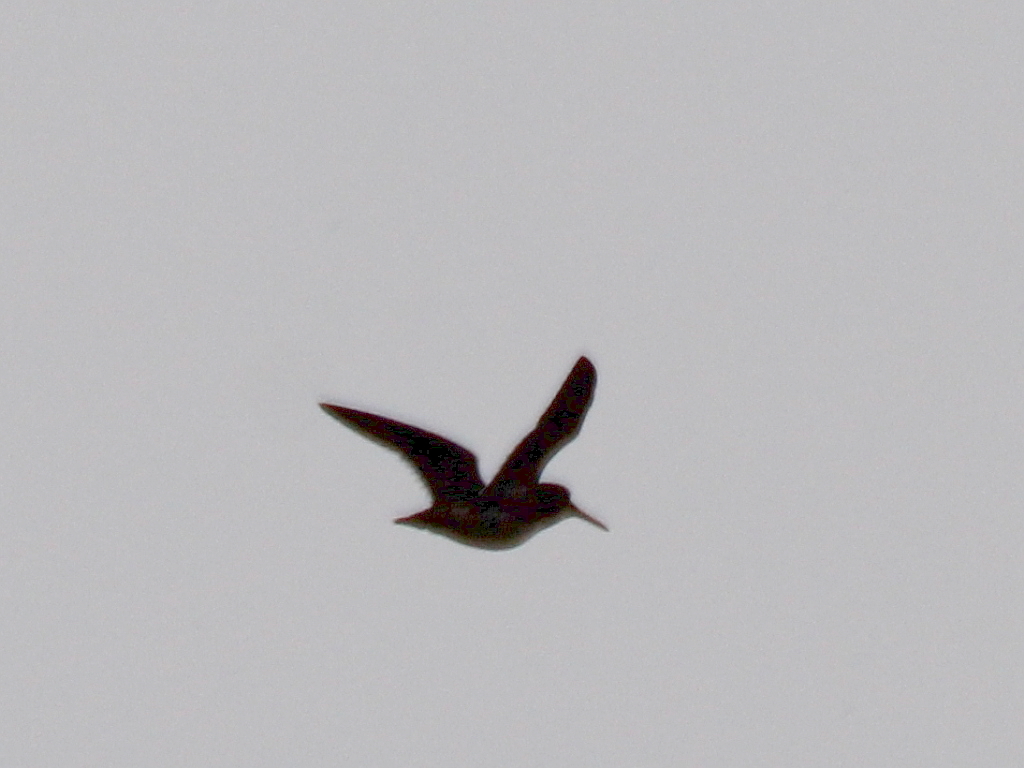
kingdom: Animalia
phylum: Chordata
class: Aves
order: Charadriiformes
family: Scolopacidae
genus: Lymnocryptes
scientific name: Lymnocryptes minimus
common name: Jack snipe
